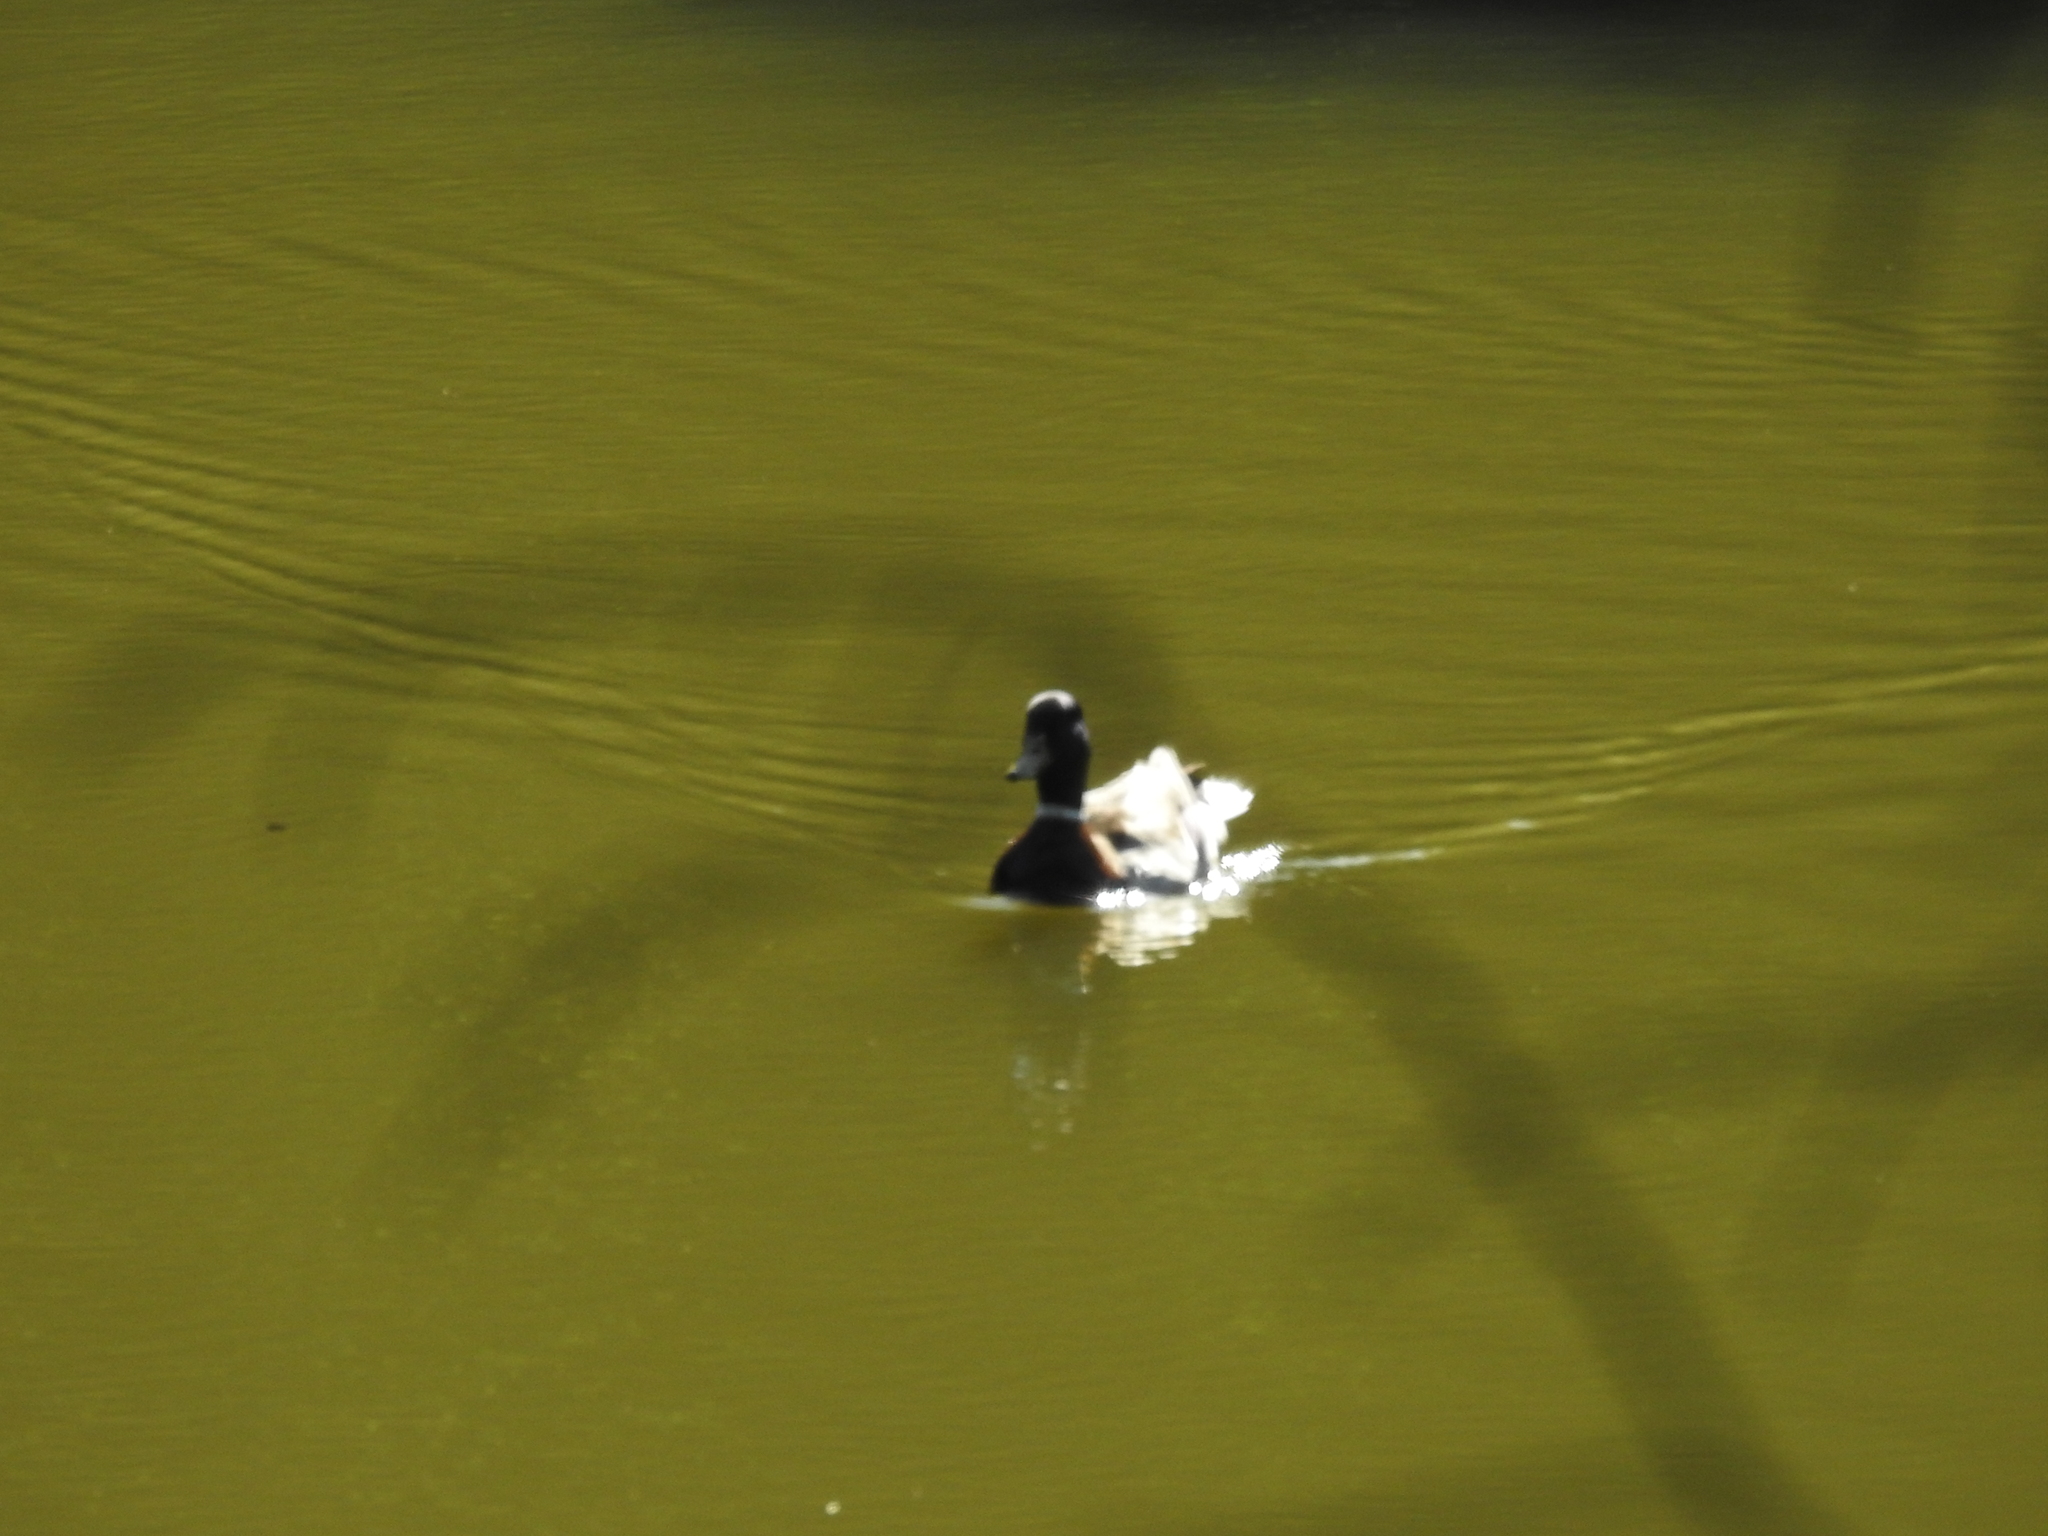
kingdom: Animalia
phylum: Chordata
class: Aves
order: Anseriformes
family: Anatidae
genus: Anas
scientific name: Anas platyrhynchos
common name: Mallard
